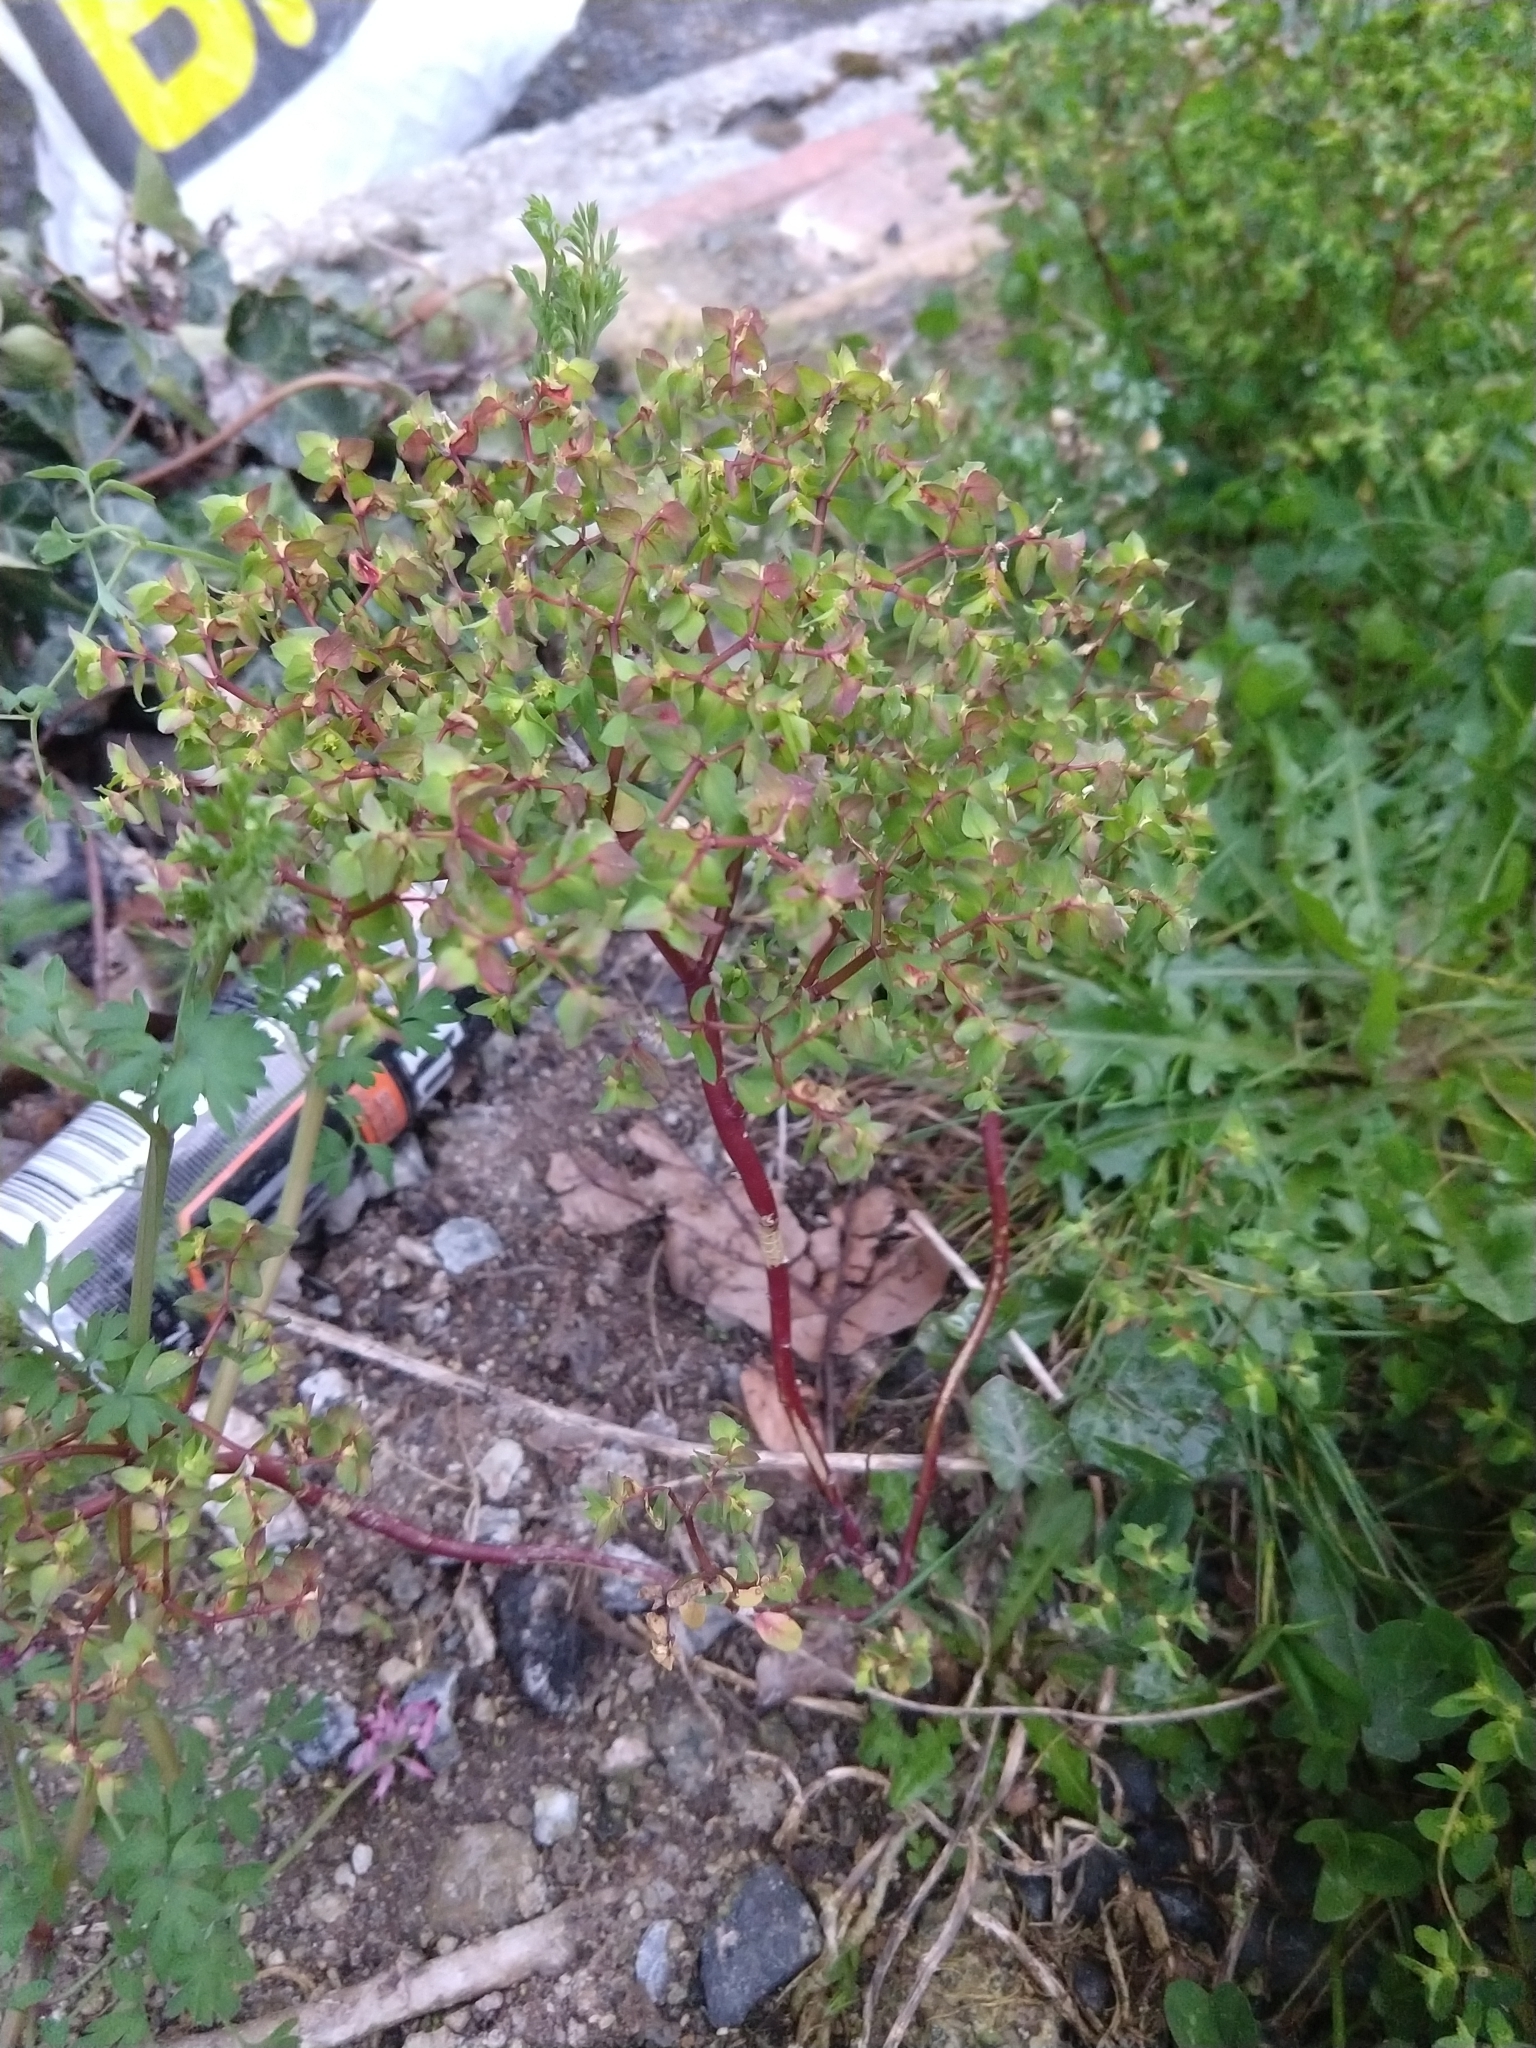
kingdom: Plantae
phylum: Tracheophyta
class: Magnoliopsida
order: Malpighiales
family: Euphorbiaceae
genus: Euphorbia
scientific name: Euphorbia peplus
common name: Petty spurge
